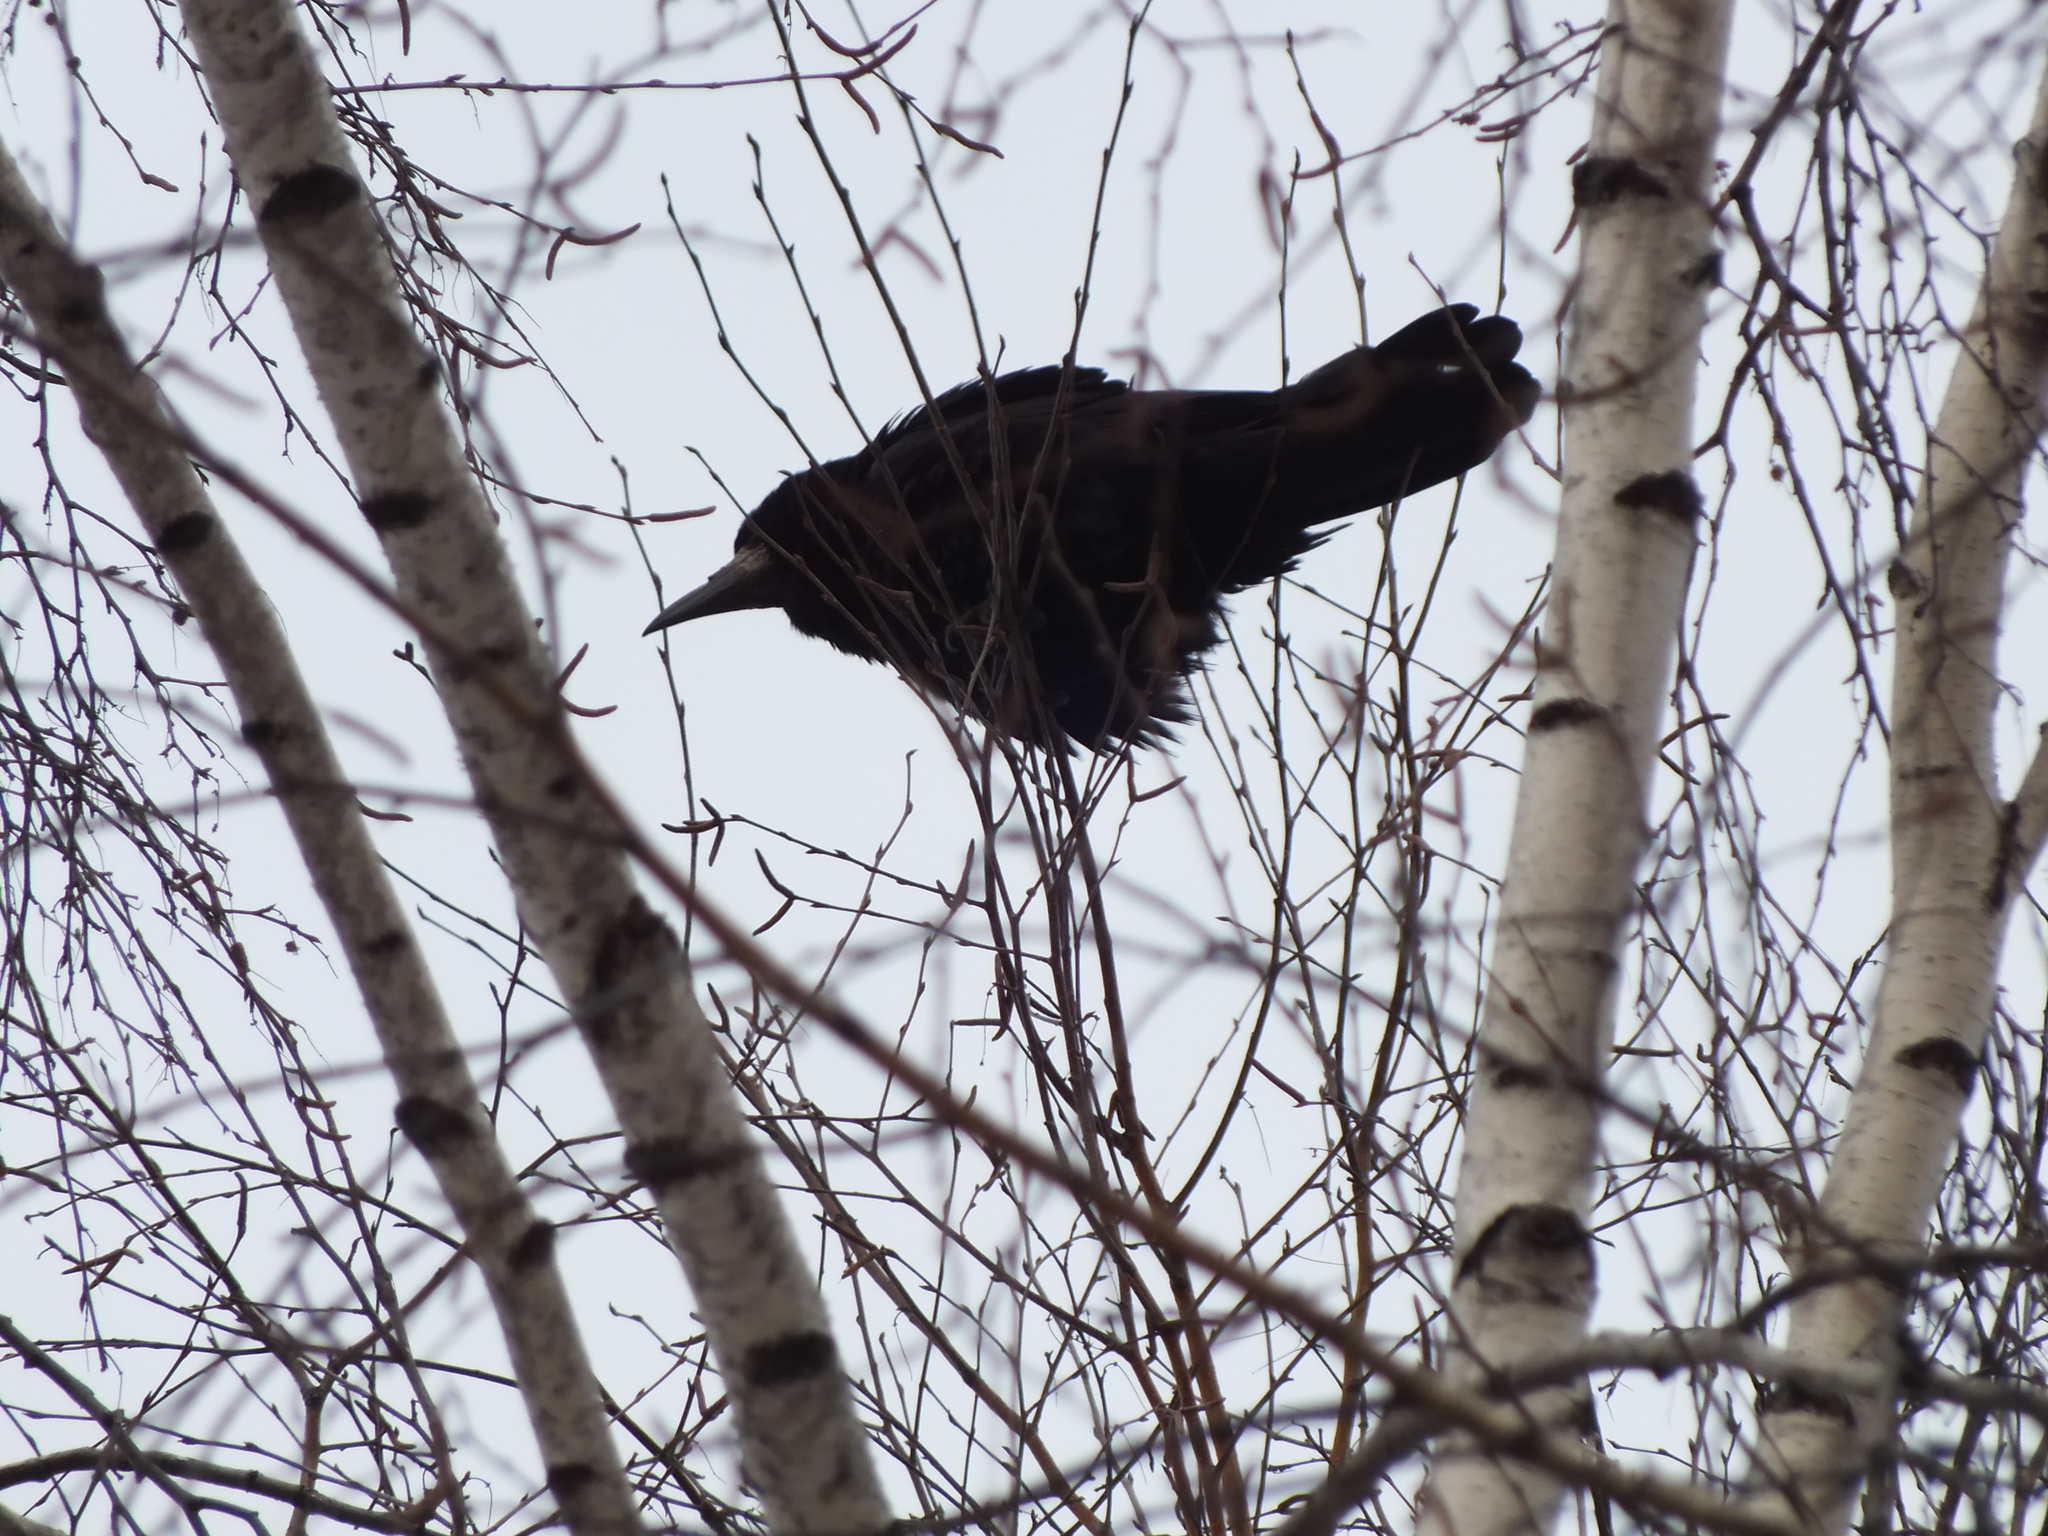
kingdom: Animalia
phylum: Chordata
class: Aves
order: Passeriformes
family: Corvidae
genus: Corvus
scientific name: Corvus frugilegus
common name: Rook
